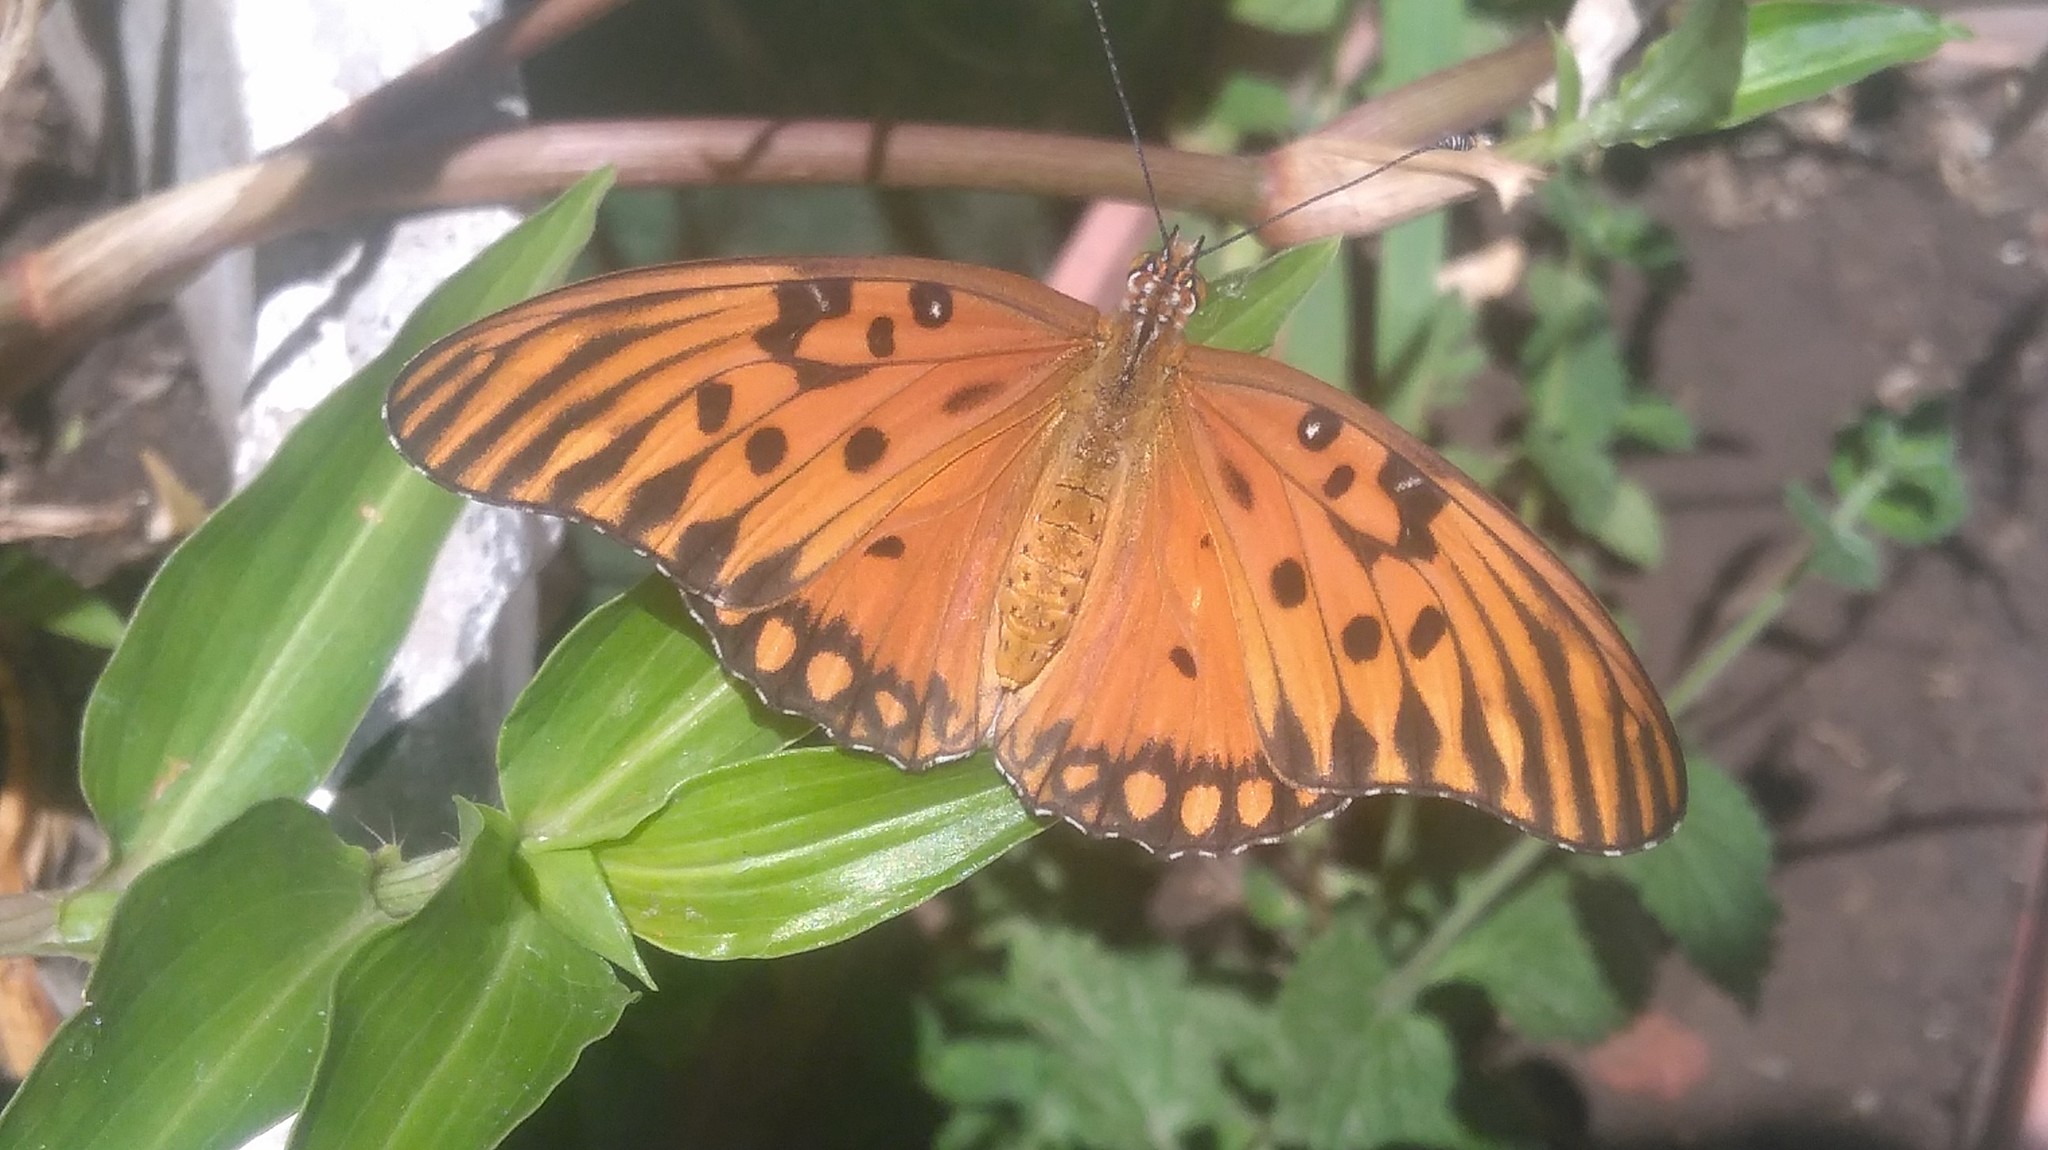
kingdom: Animalia
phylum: Arthropoda
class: Insecta
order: Lepidoptera
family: Nymphalidae
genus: Dione
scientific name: Dione vanillae
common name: Gulf fritillary
